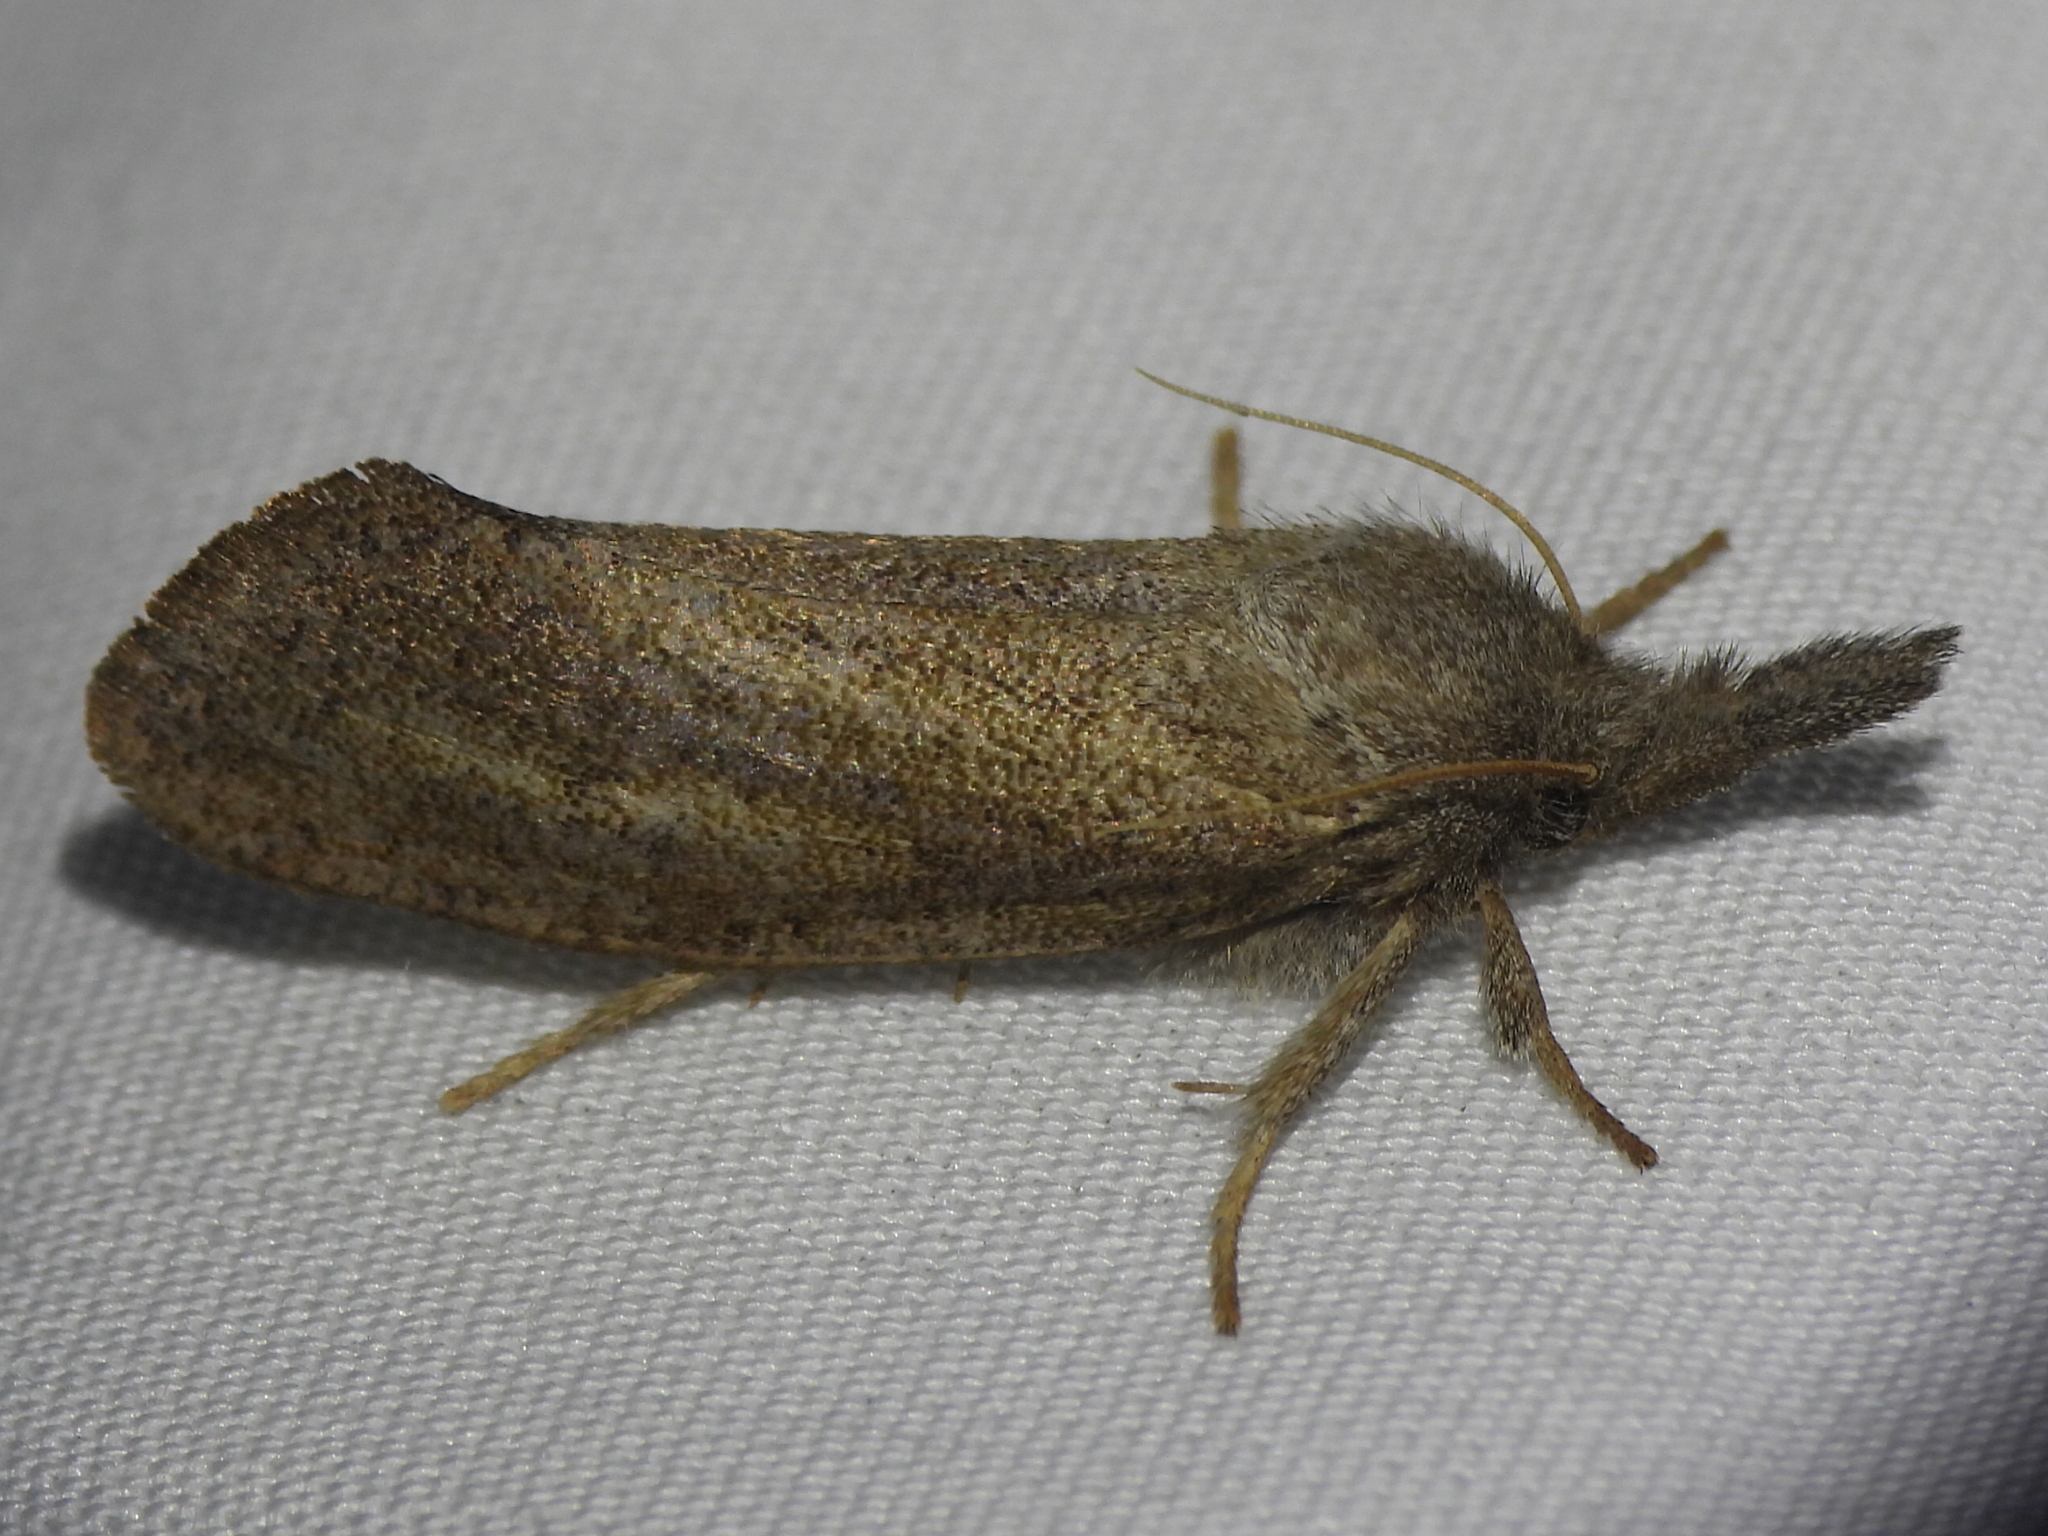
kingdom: Animalia
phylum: Arthropoda
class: Insecta
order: Lepidoptera
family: Tineidae
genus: Acrolophus
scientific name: Acrolophus plumifrontella
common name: Eastern grass tubeworm moth
